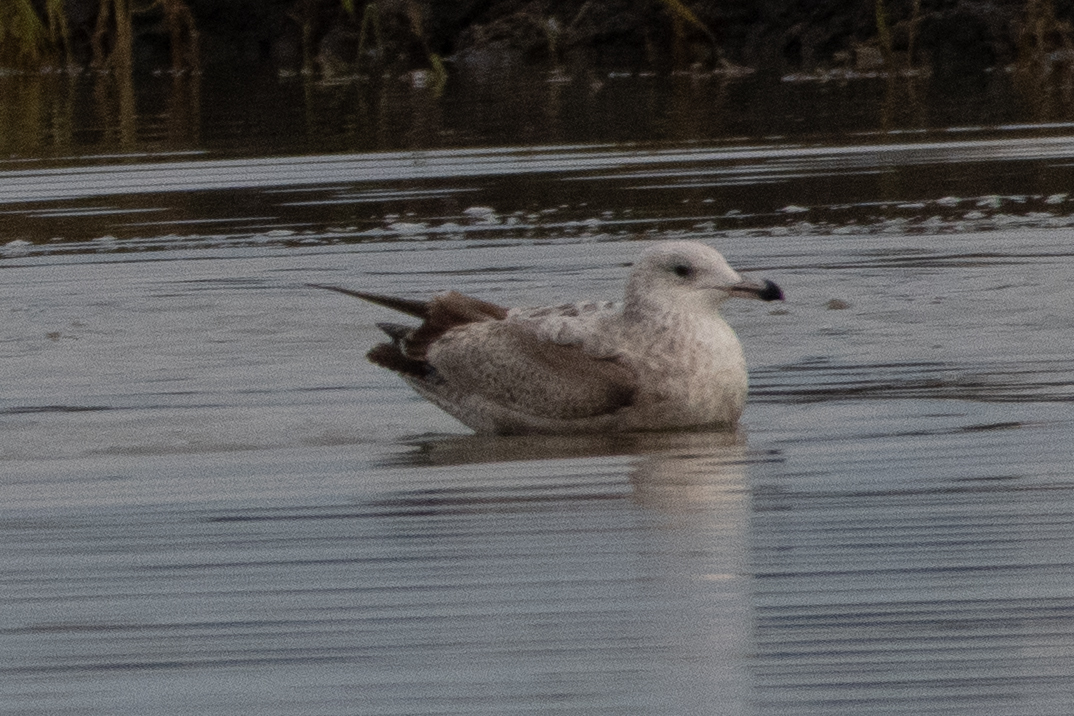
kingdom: Animalia
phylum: Chordata
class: Aves
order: Charadriiformes
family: Laridae
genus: Larus
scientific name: Larus argentatus
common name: Herring gull
